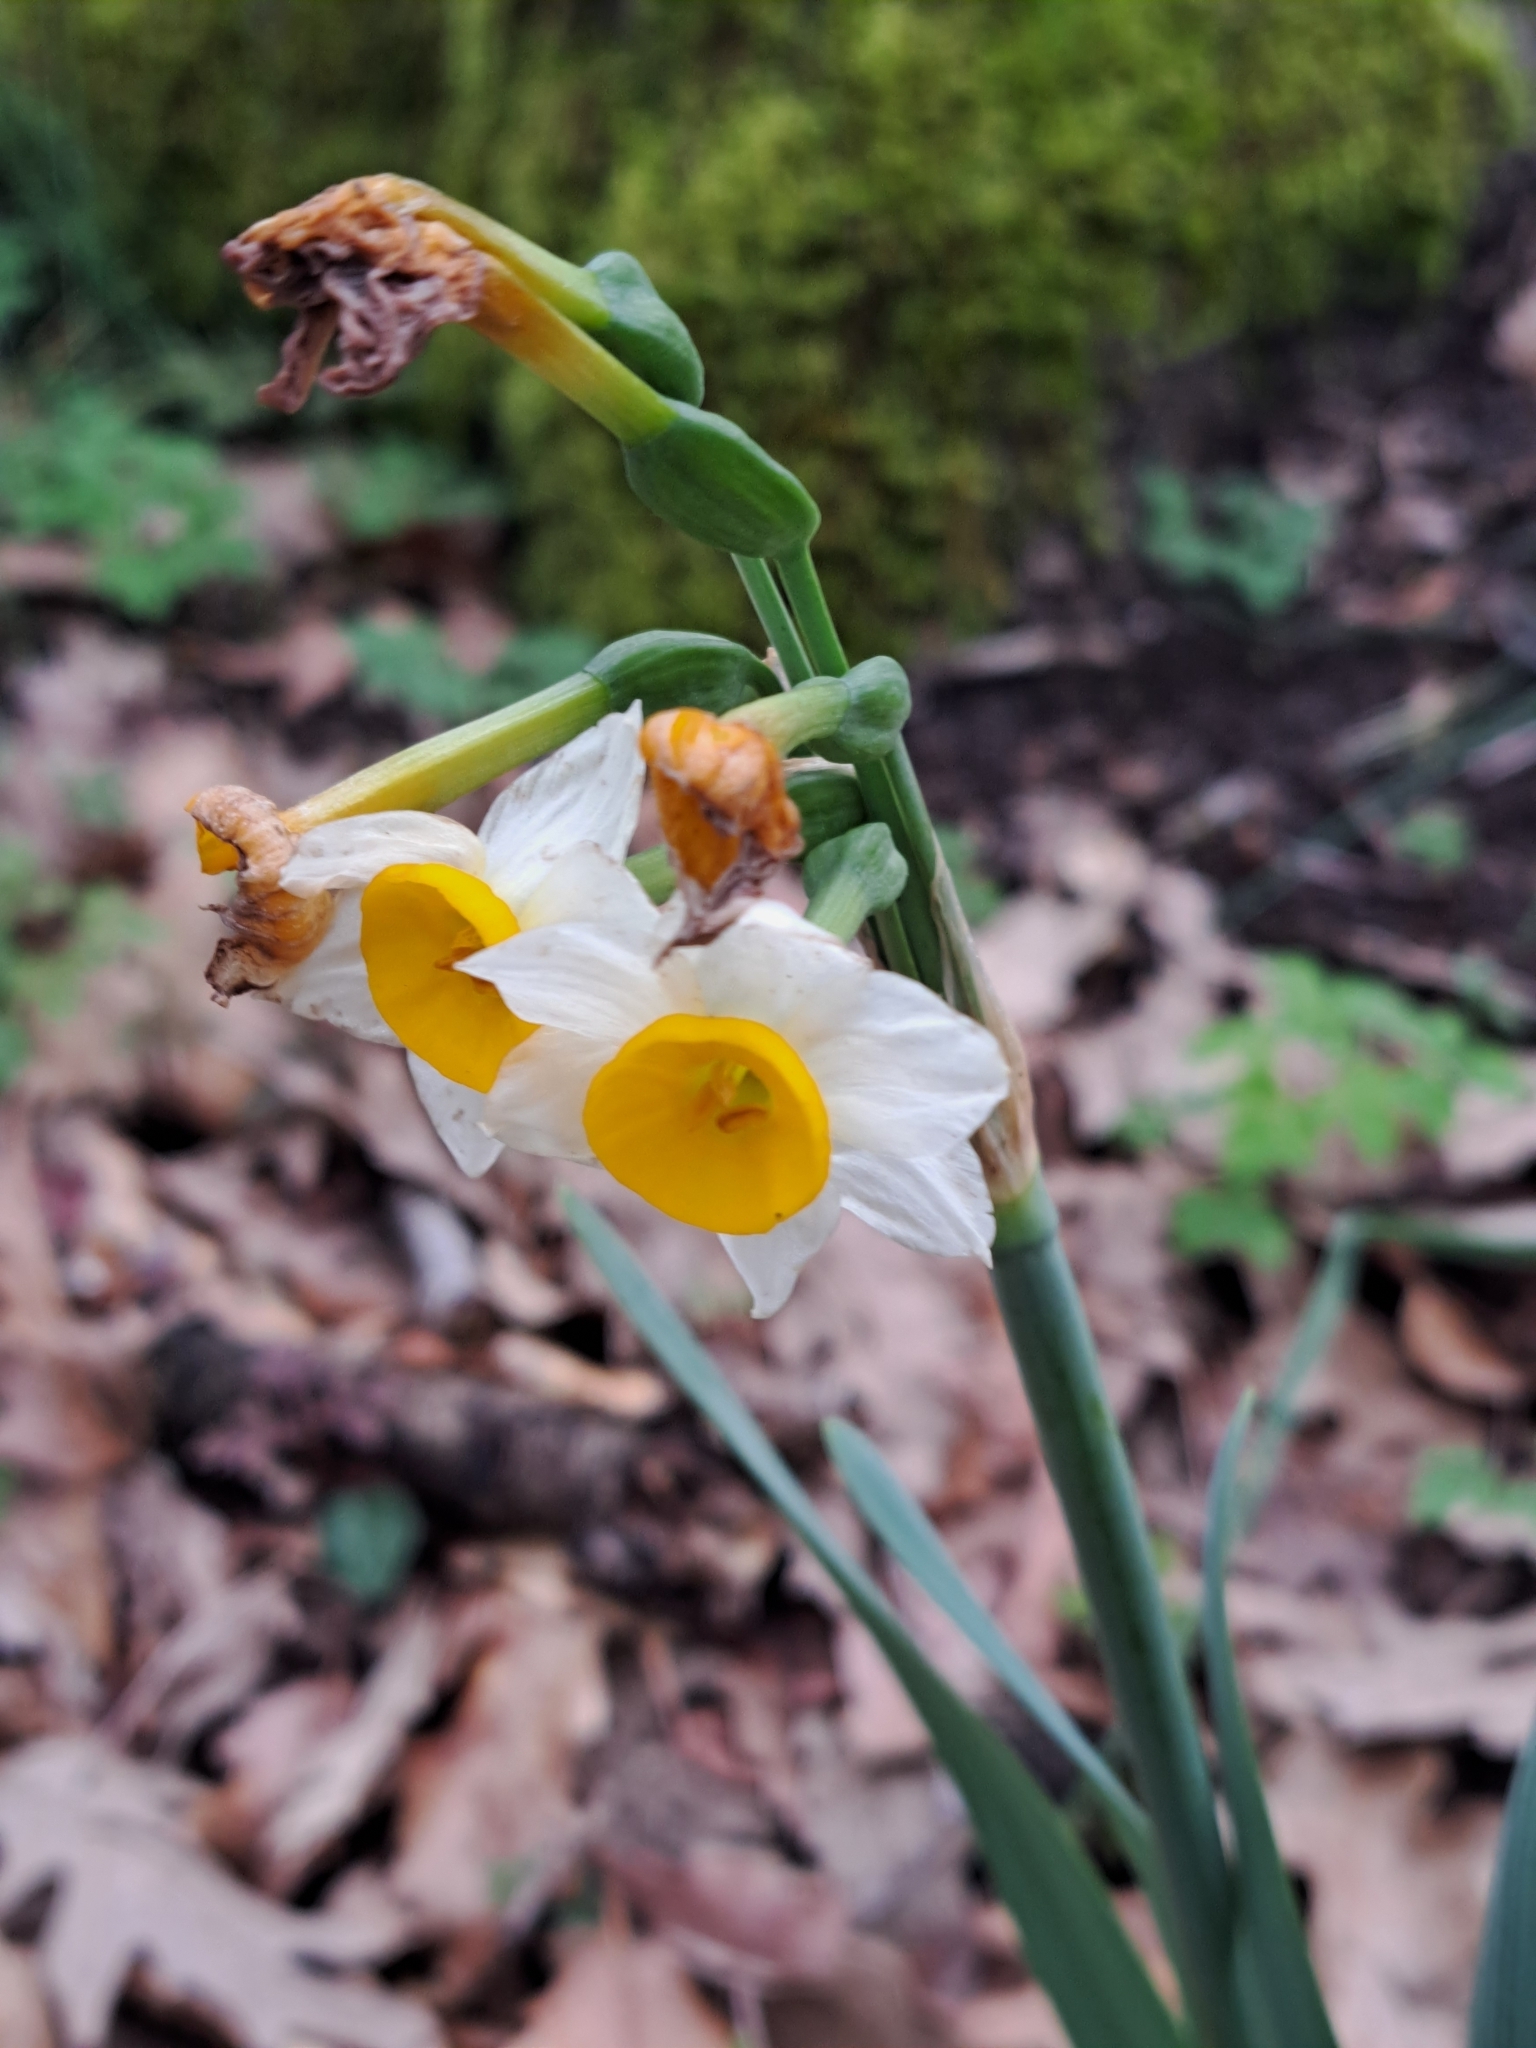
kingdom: Plantae
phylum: Tracheophyta
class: Liliopsida
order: Asparagales
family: Amaryllidaceae
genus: Narcissus
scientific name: Narcissus tazetta
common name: Bunch-flowered daffodil
